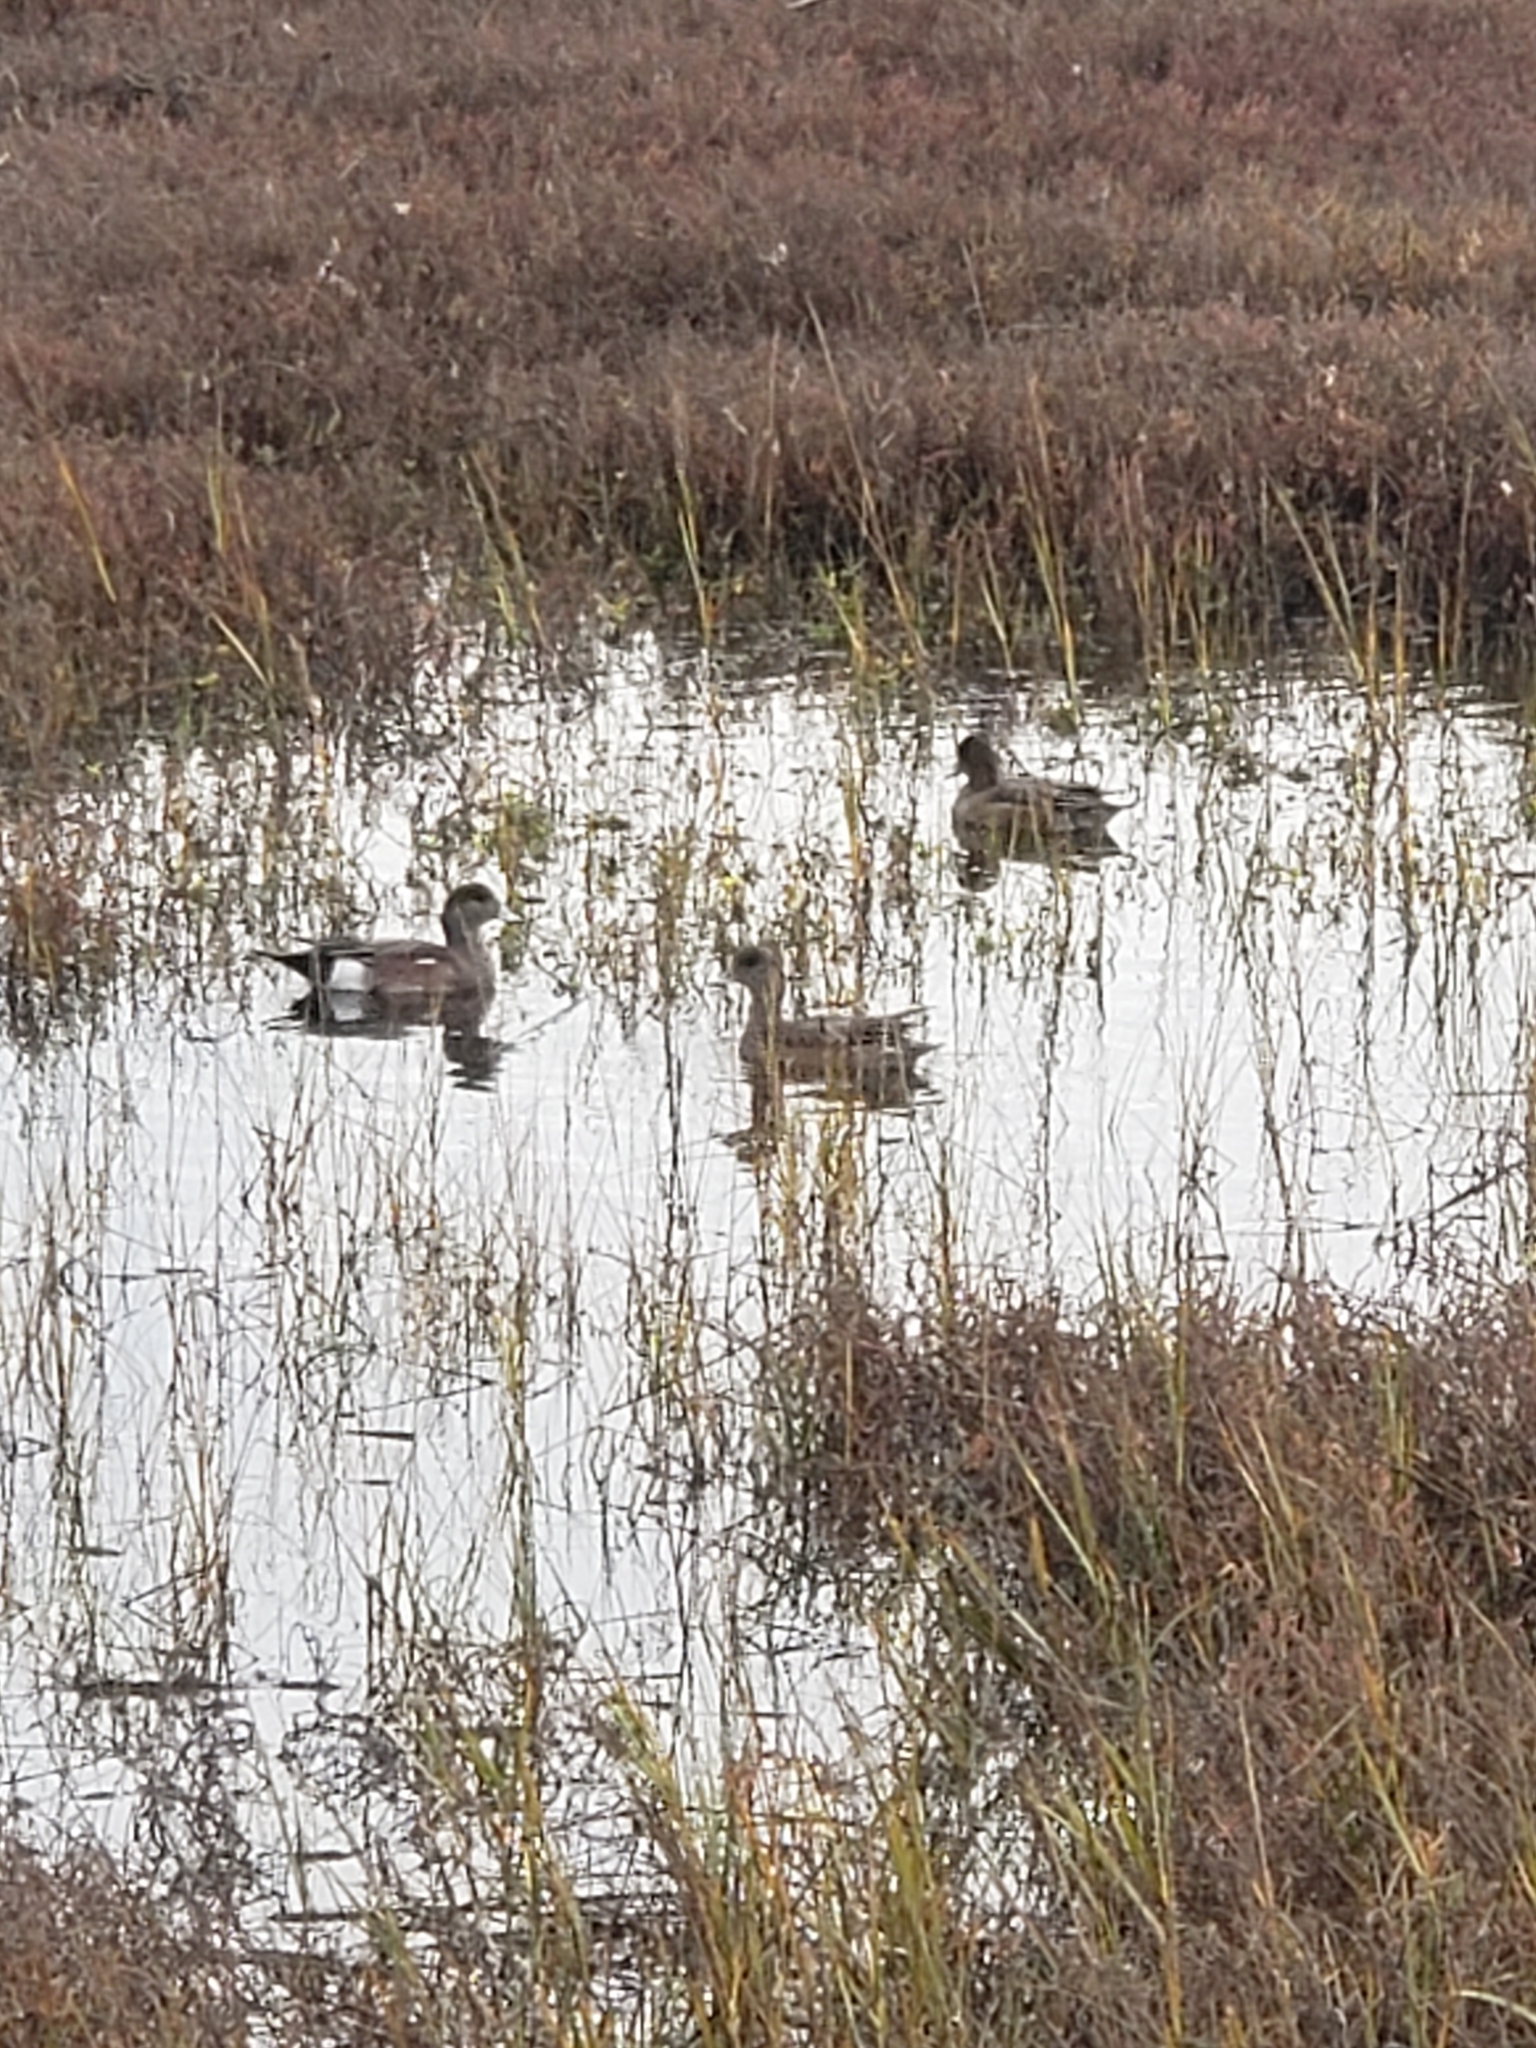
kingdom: Animalia
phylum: Chordata
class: Aves
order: Anseriformes
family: Anatidae
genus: Mareca
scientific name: Mareca americana
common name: American wigeon
